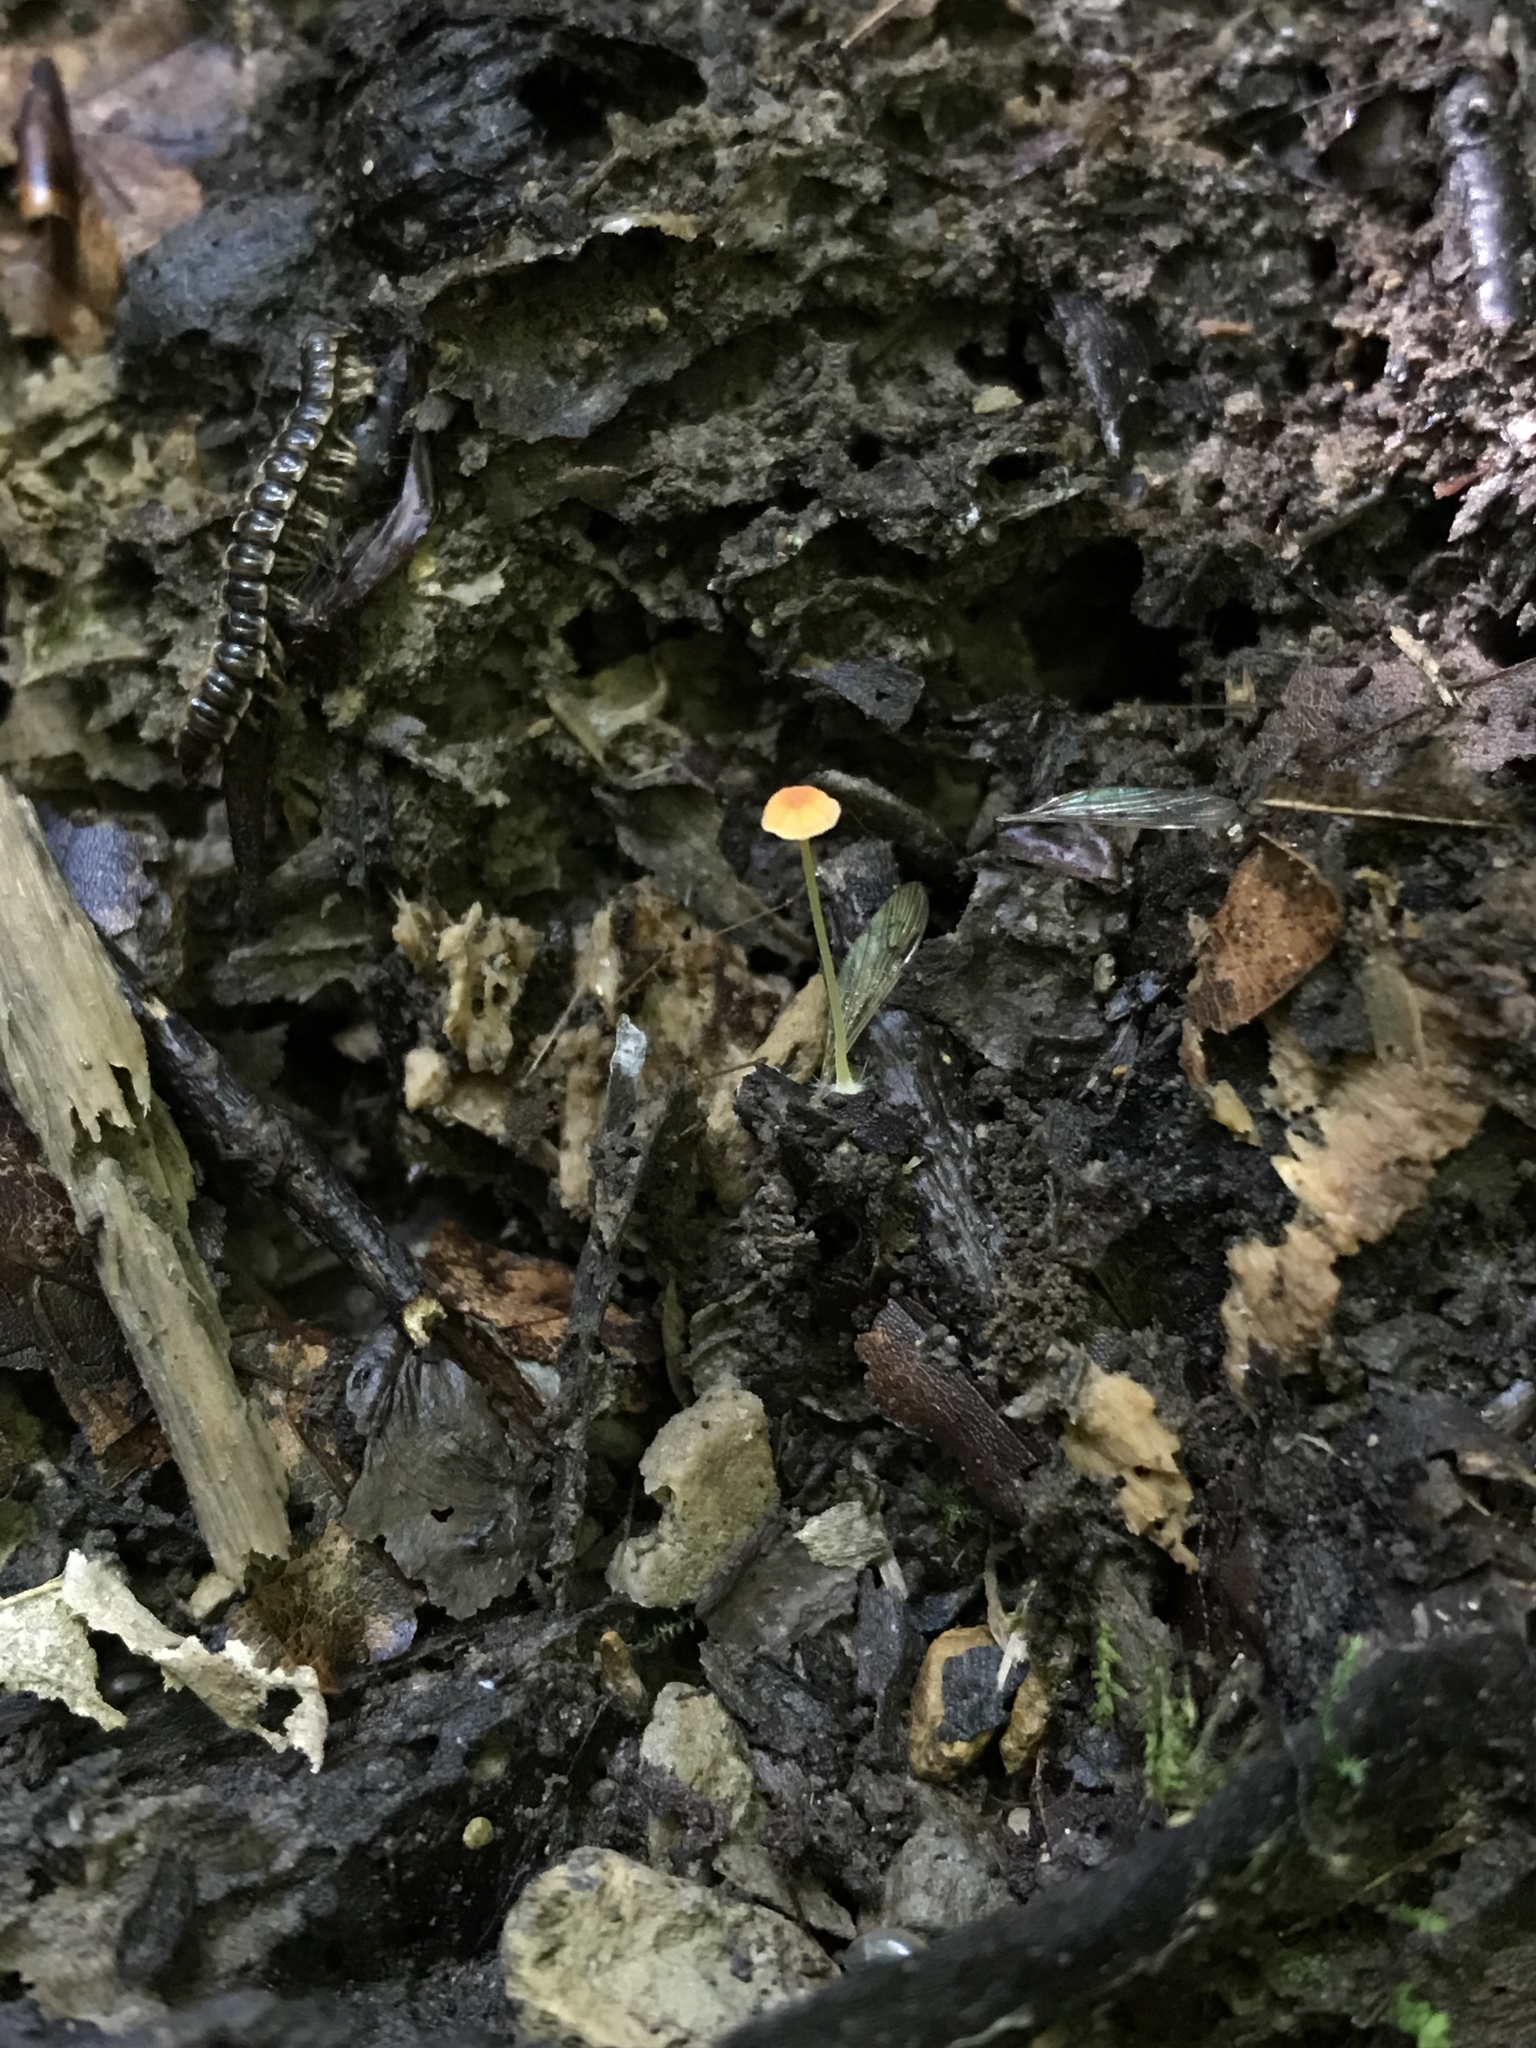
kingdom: Fungi
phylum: Basidiomycota
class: Agaricomycetes
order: Agaricales
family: Mycenaceae
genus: Mycena
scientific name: Mycena acicula
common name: Orange bonnet
